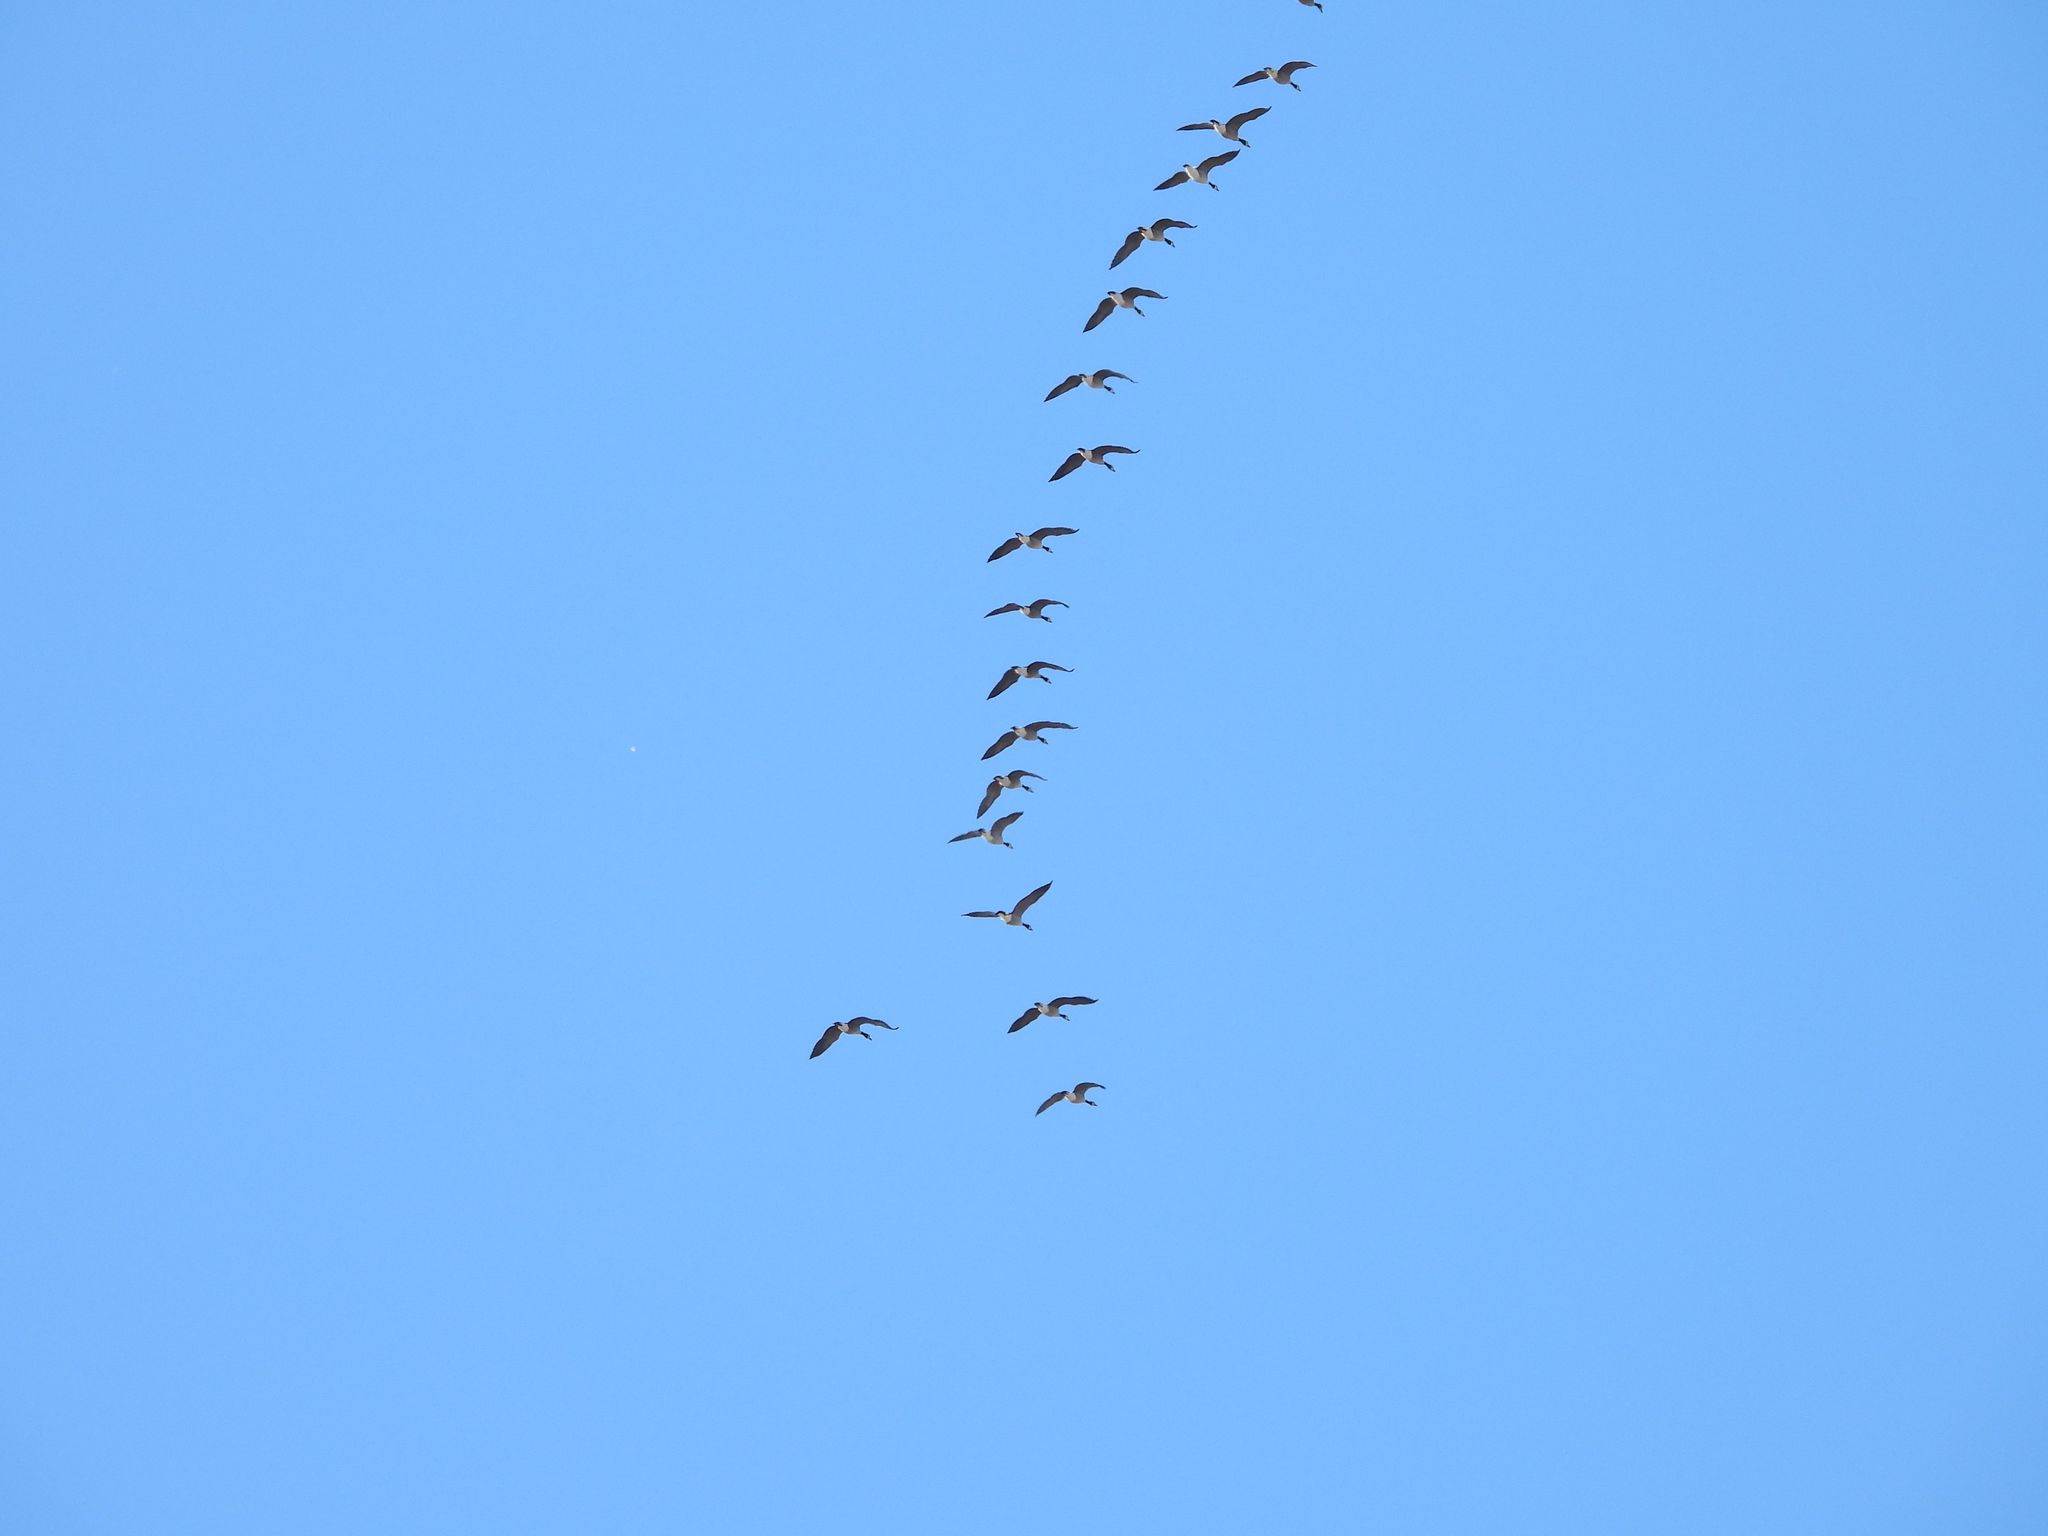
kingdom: Animalia
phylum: Chordata
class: Aves
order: Anseriformes
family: Anatidae
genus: Branta
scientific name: Branta canadensis
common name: Canada goose
